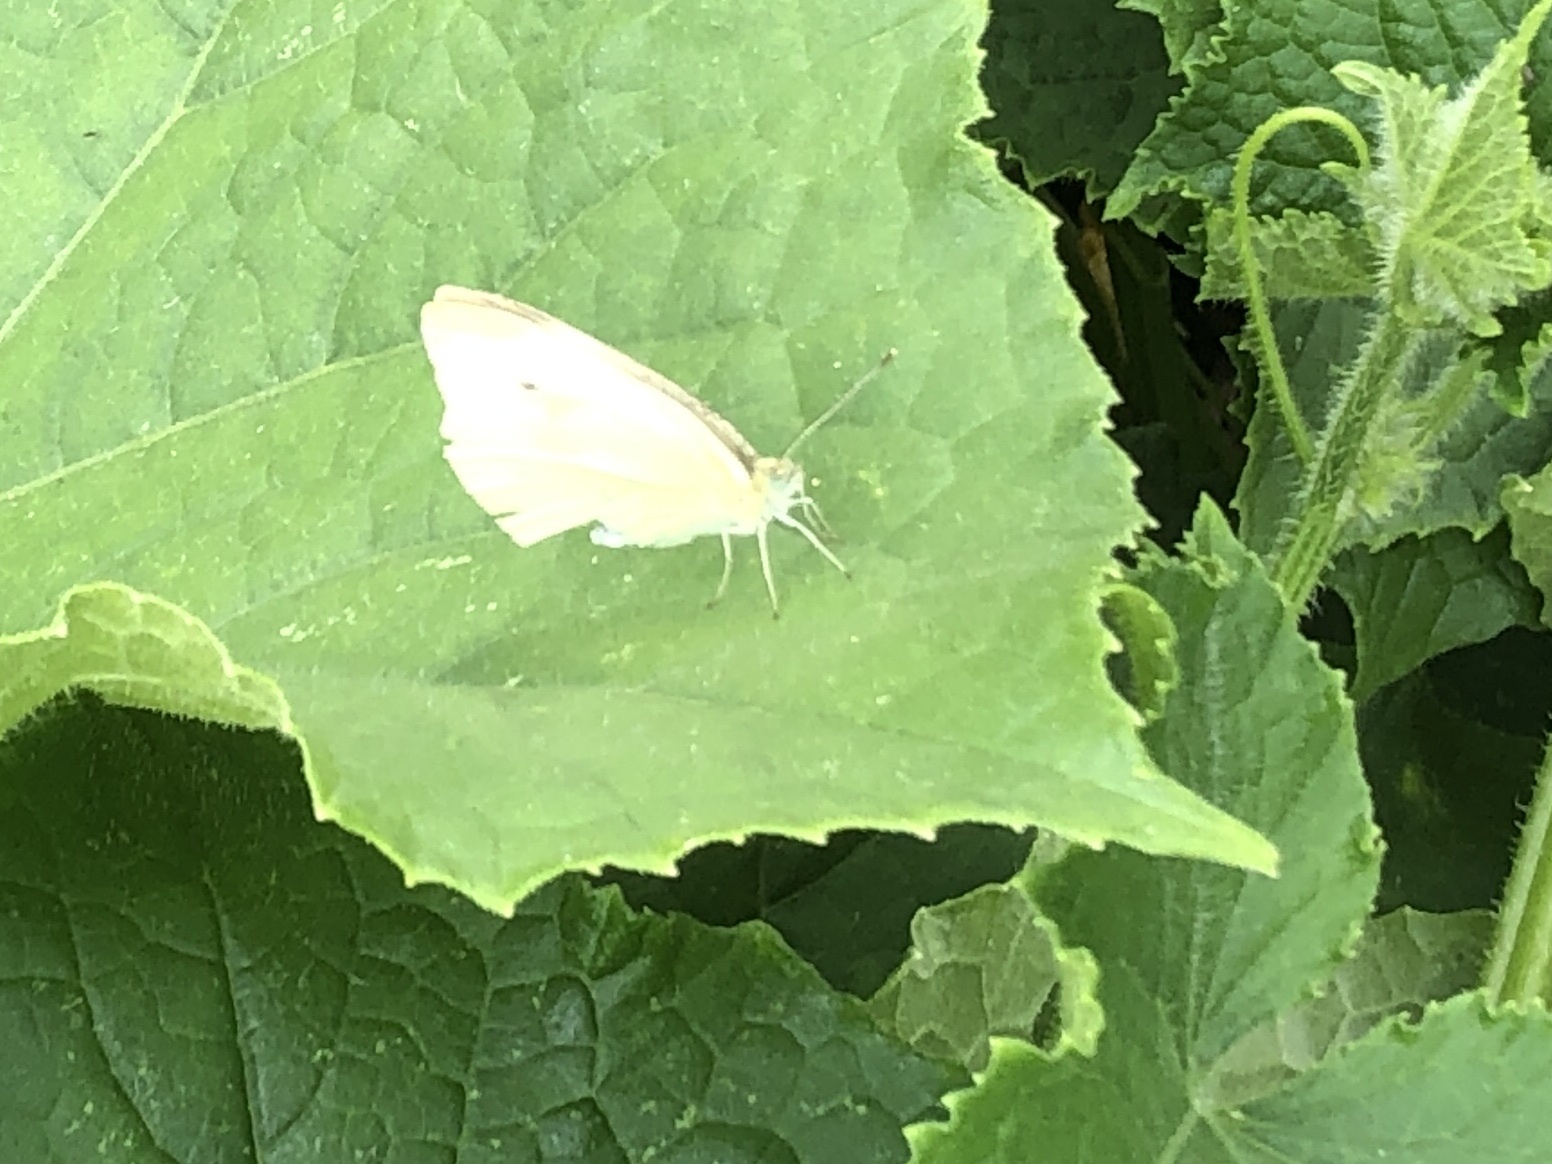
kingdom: Animalia
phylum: Arthropoda
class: Insecta
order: Lepidoptera
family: Pieridae
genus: Pieris
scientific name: Pieris rapae
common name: Small white
